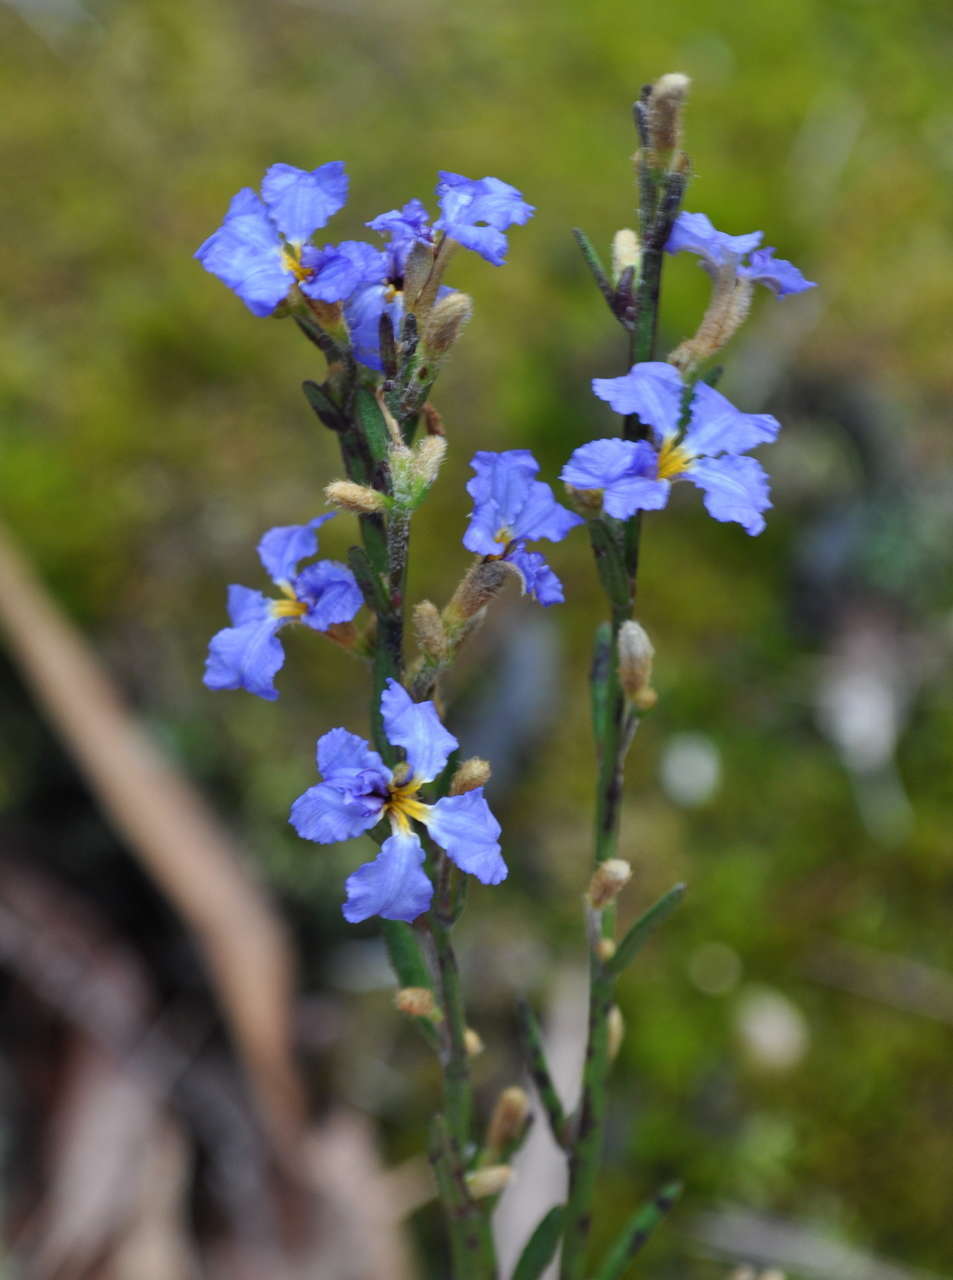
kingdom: Plantae
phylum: Tracheophyta
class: Magnoliopsida
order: Asterales
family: Goodeniaceae
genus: Dampiera
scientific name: Dampiera stricta
